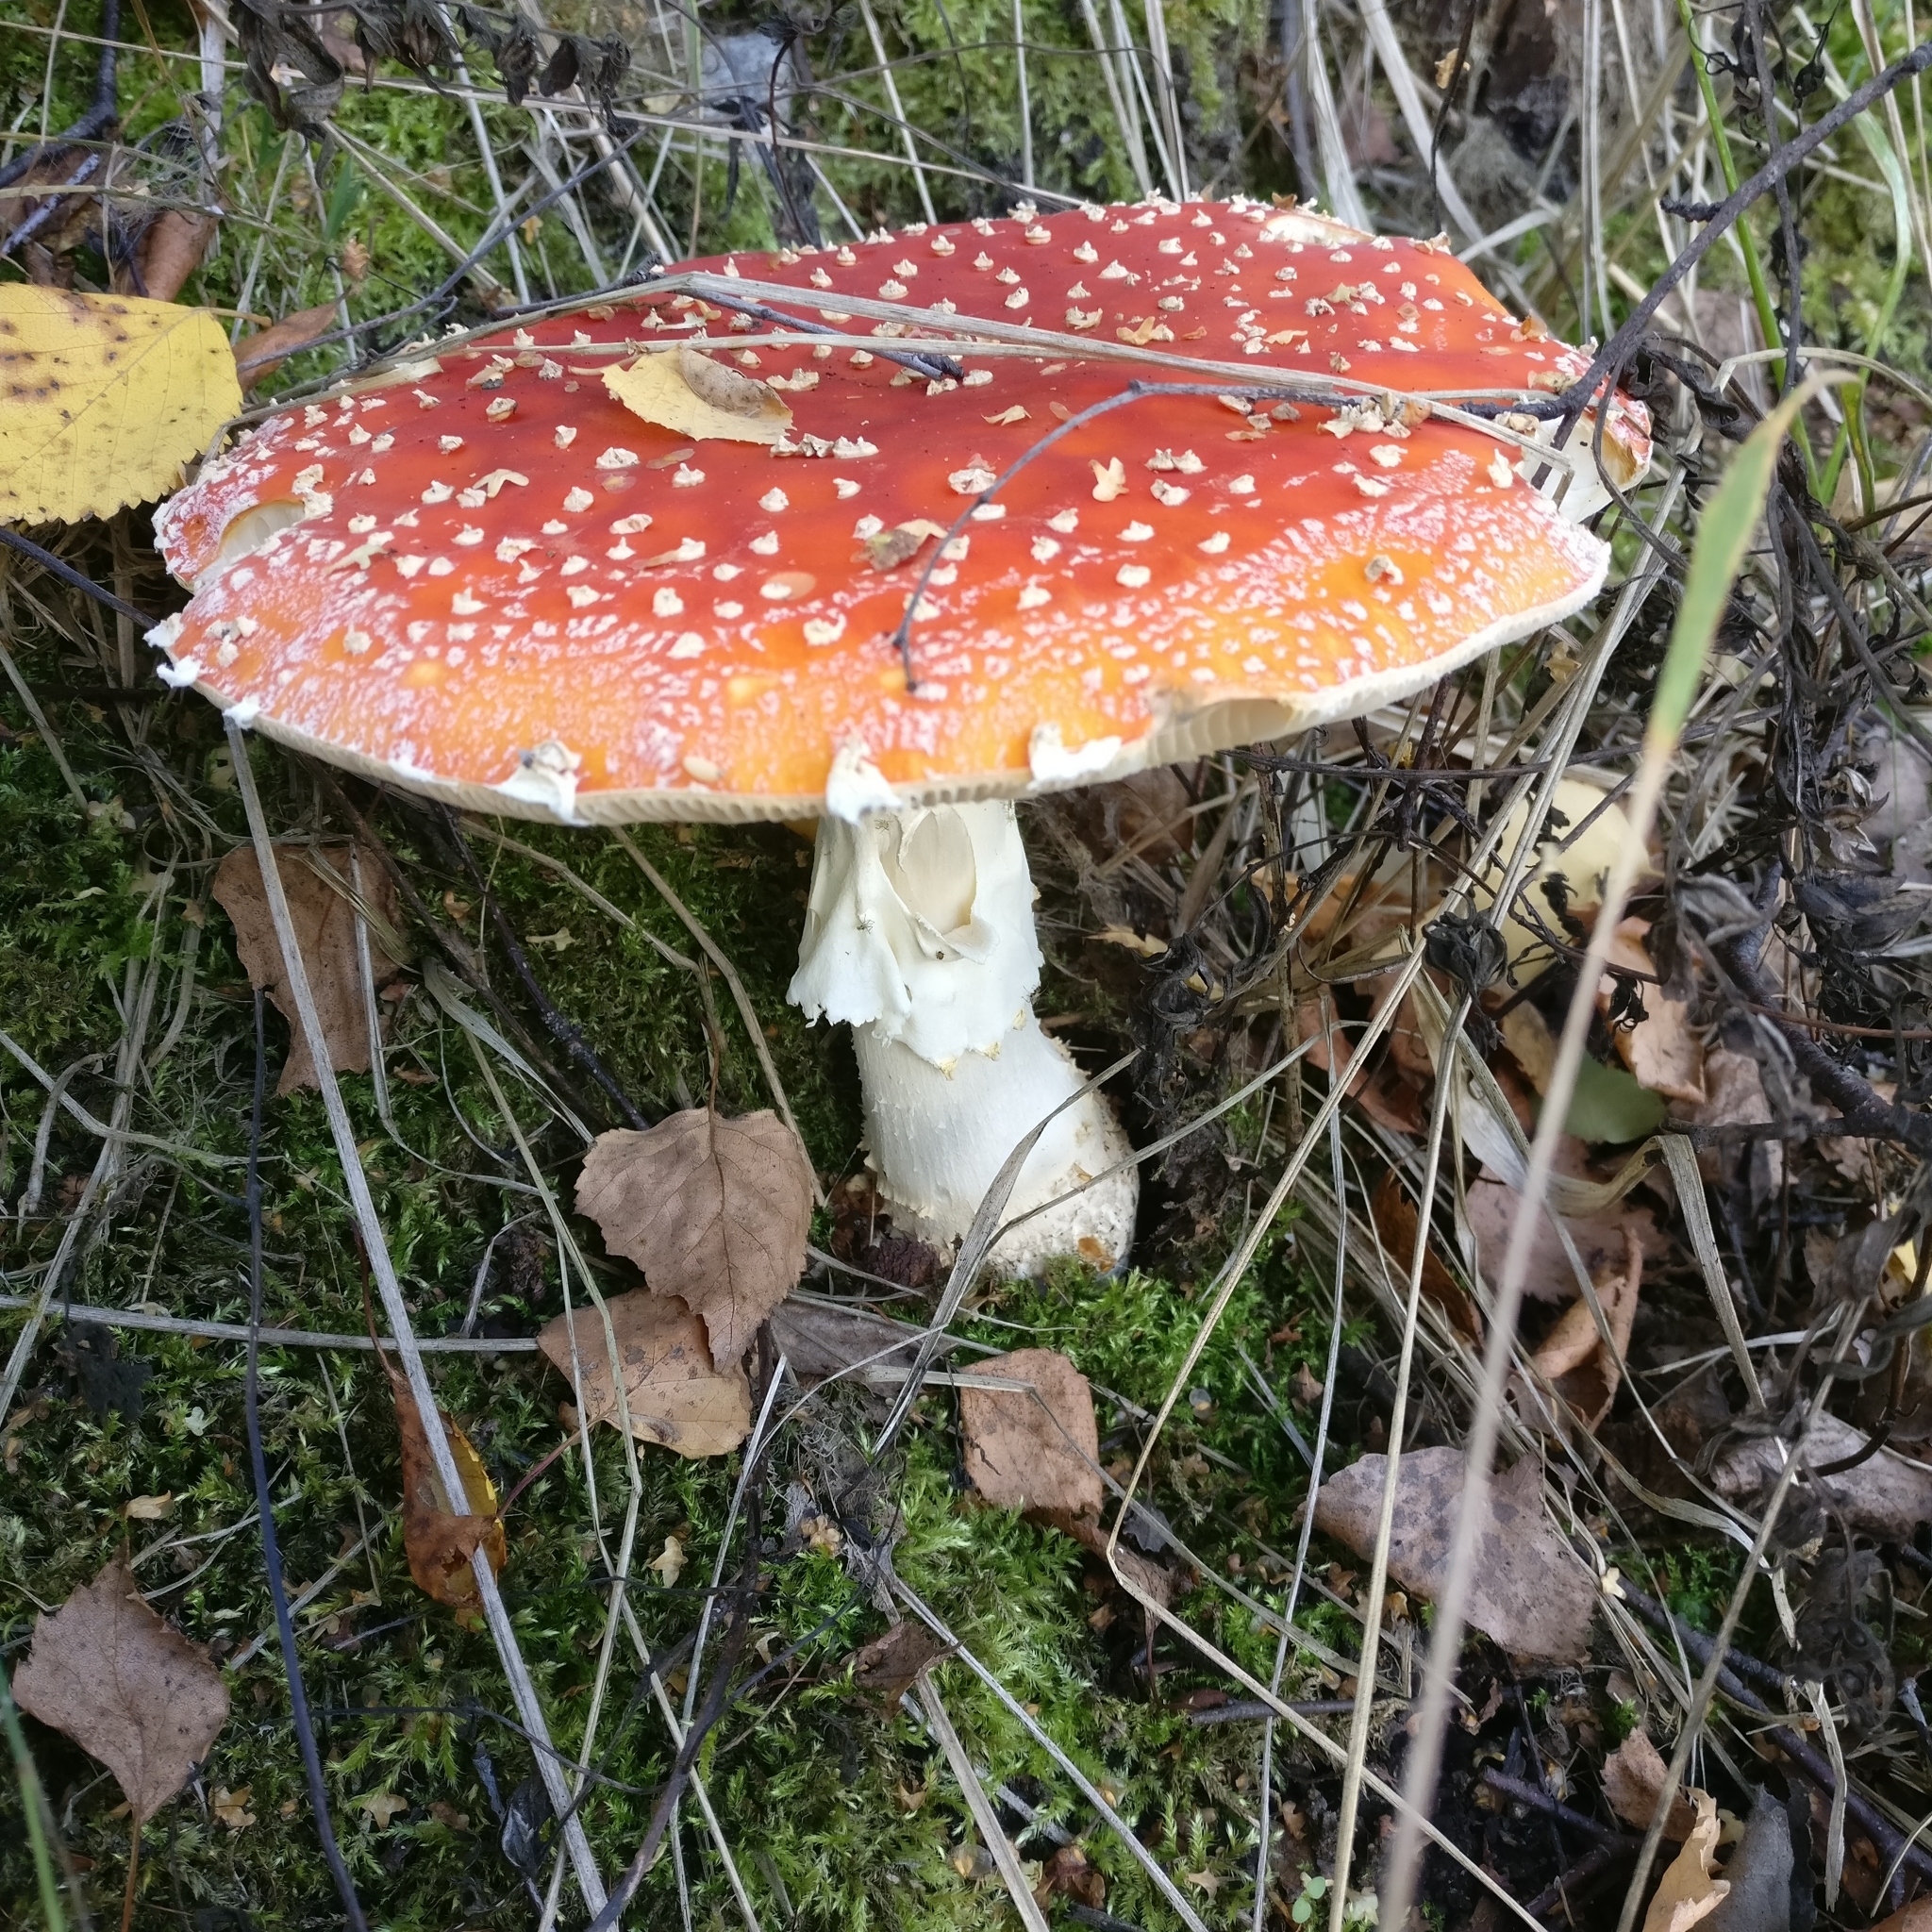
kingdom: Fungi
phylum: Basidiomycota
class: Agaricomycetes
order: Agaricales
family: Amanitaceae
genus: Amanita
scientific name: Amanita muscaria
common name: Fly agaric
